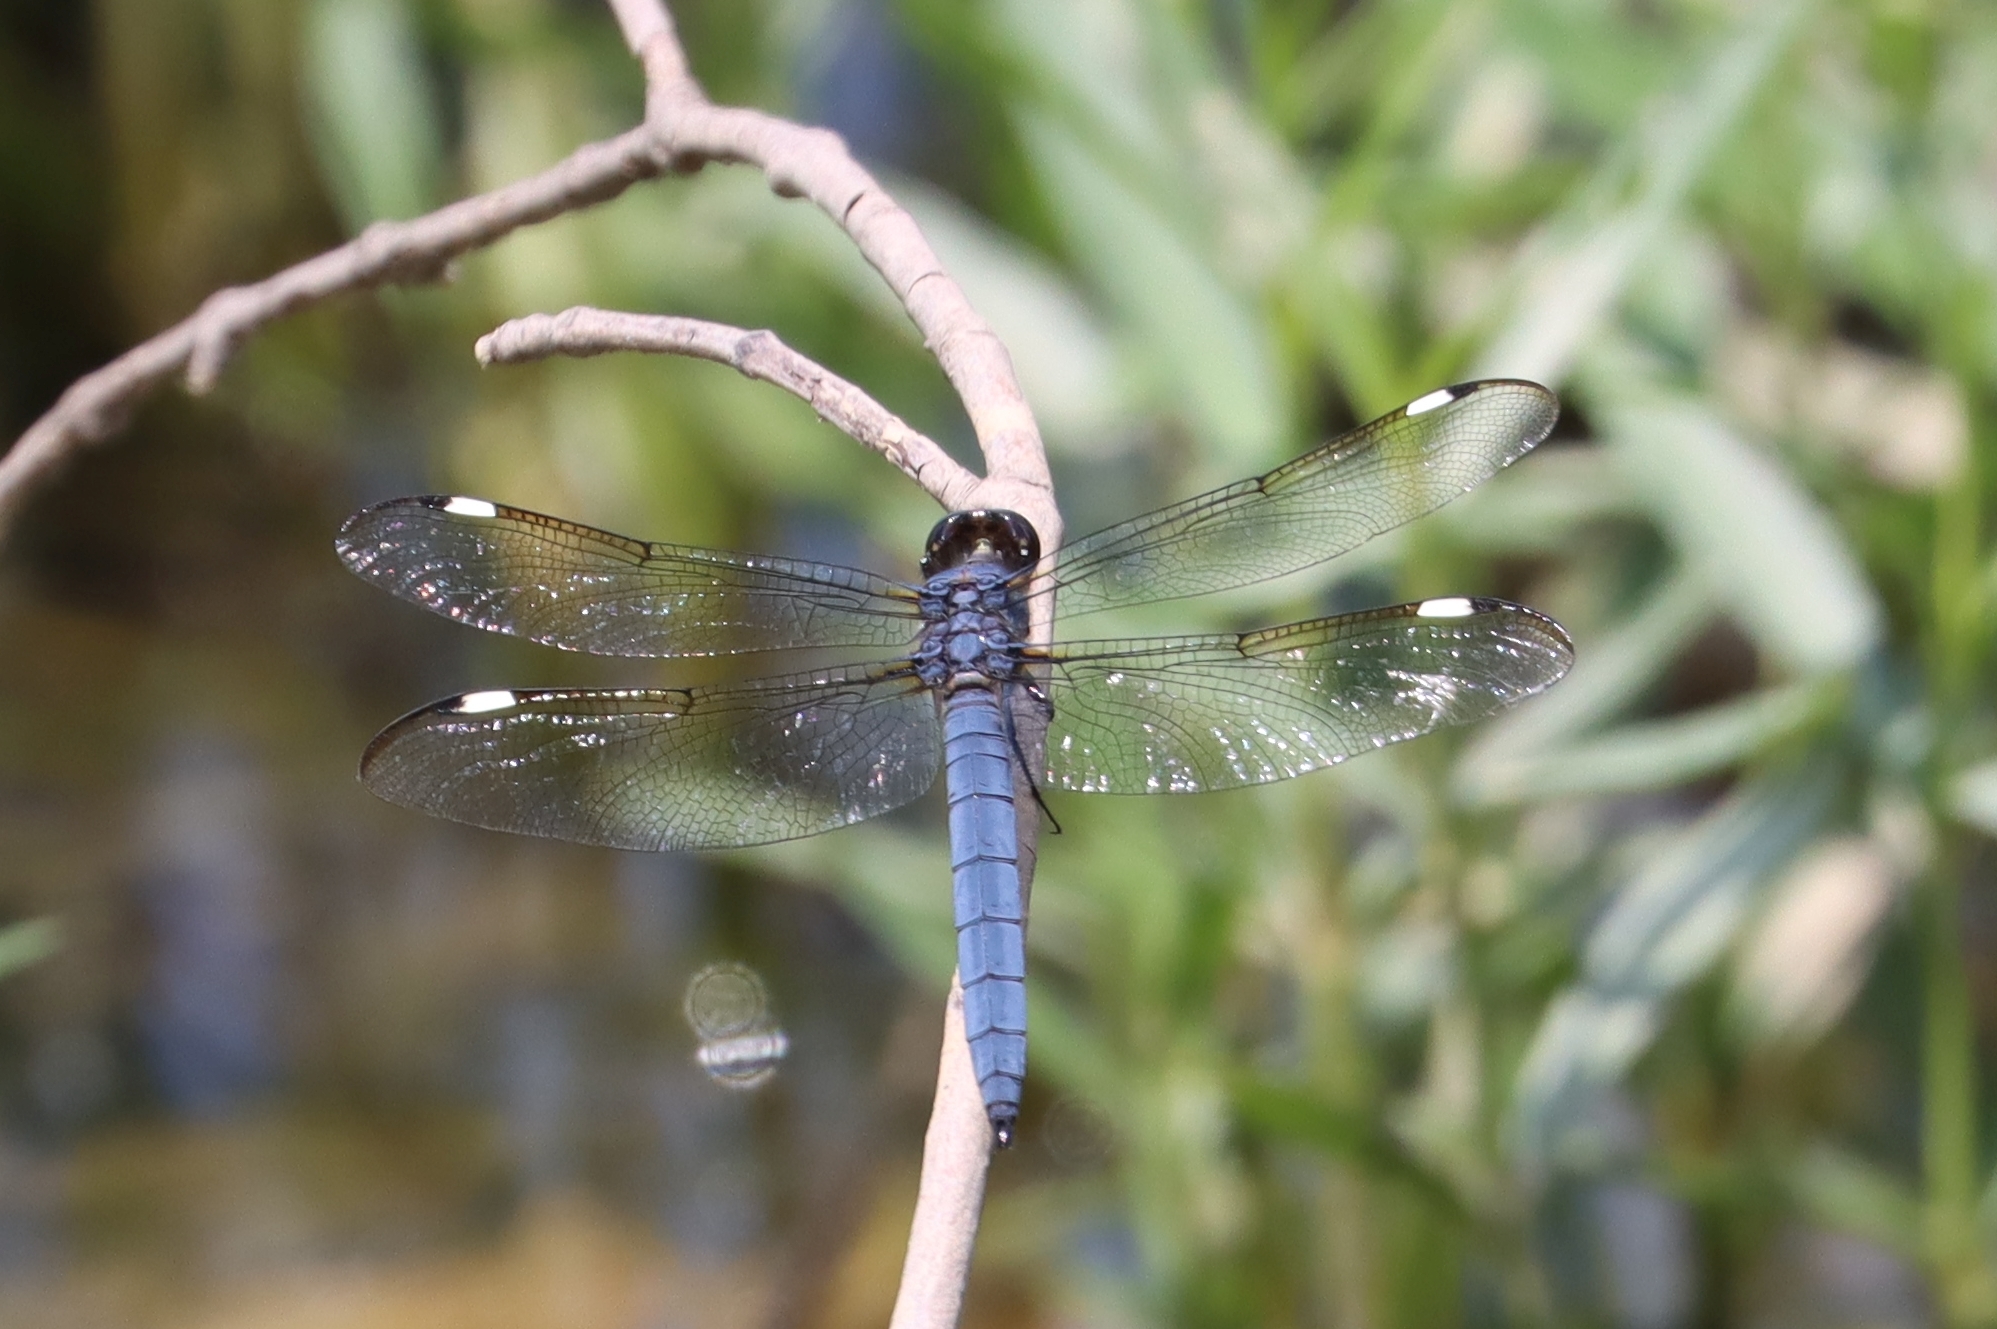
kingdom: Animalia
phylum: Arthropoda
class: Insecta
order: Odonata
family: Libellulidae
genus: Libellula
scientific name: Libellula cyanea
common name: Spangled skimmer
